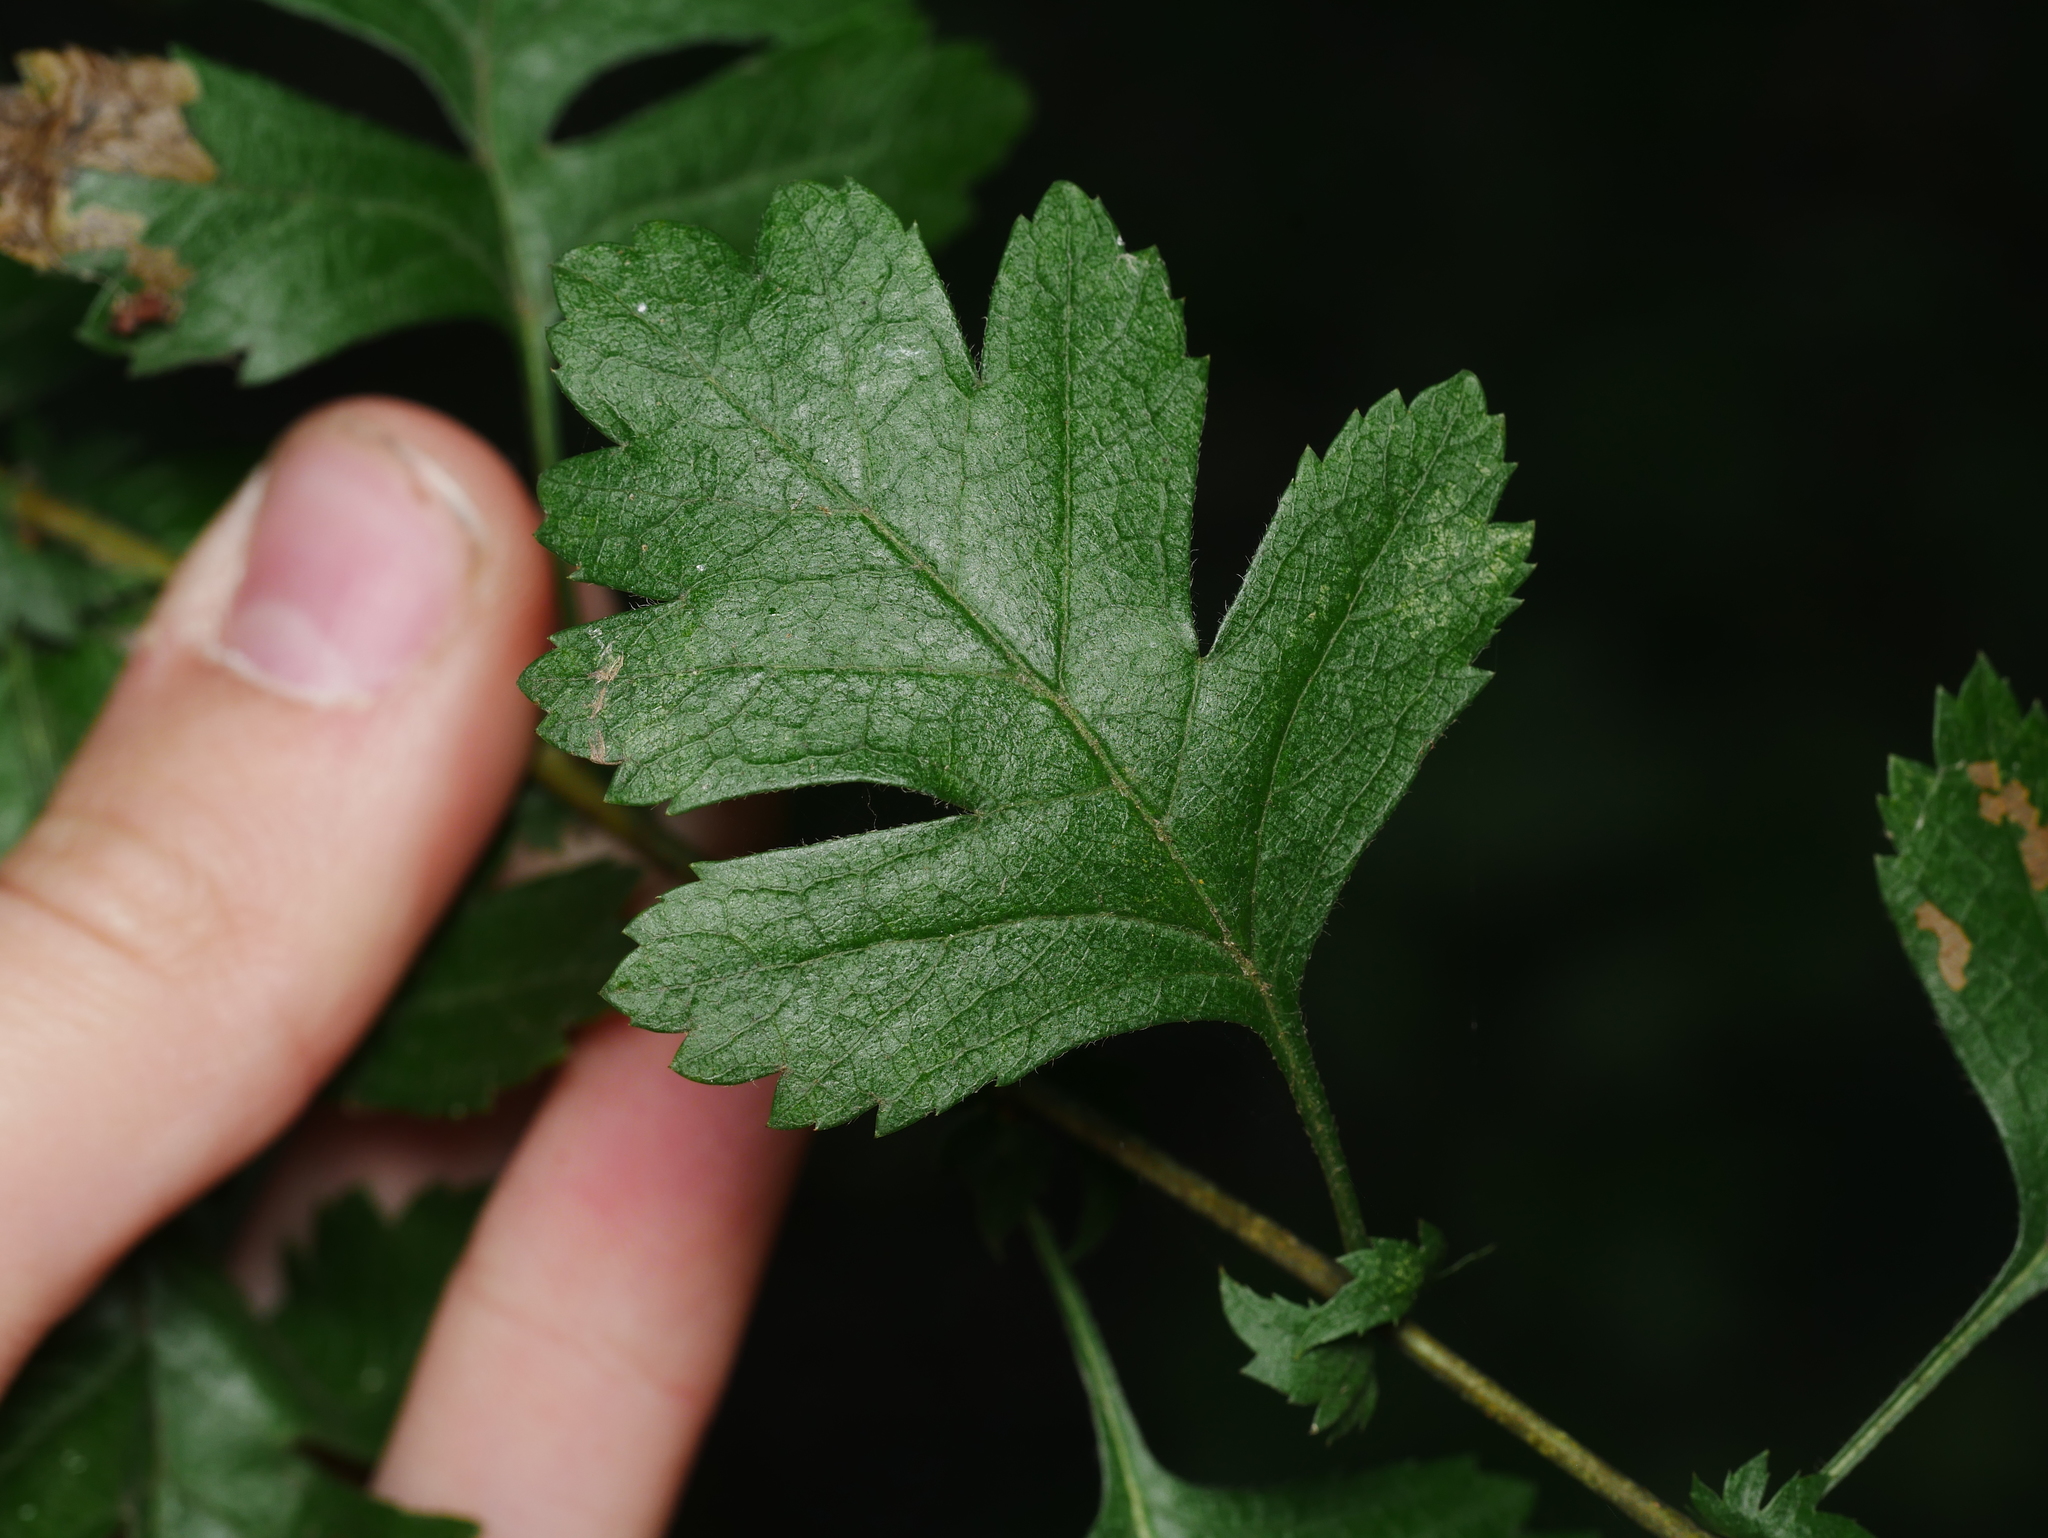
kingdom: Plantae
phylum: Tracheophyta
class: Magnoliopsida
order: Rosales
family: Rosaceae
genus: Crataegus
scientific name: Crataegus monogyna
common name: Hawthorn
